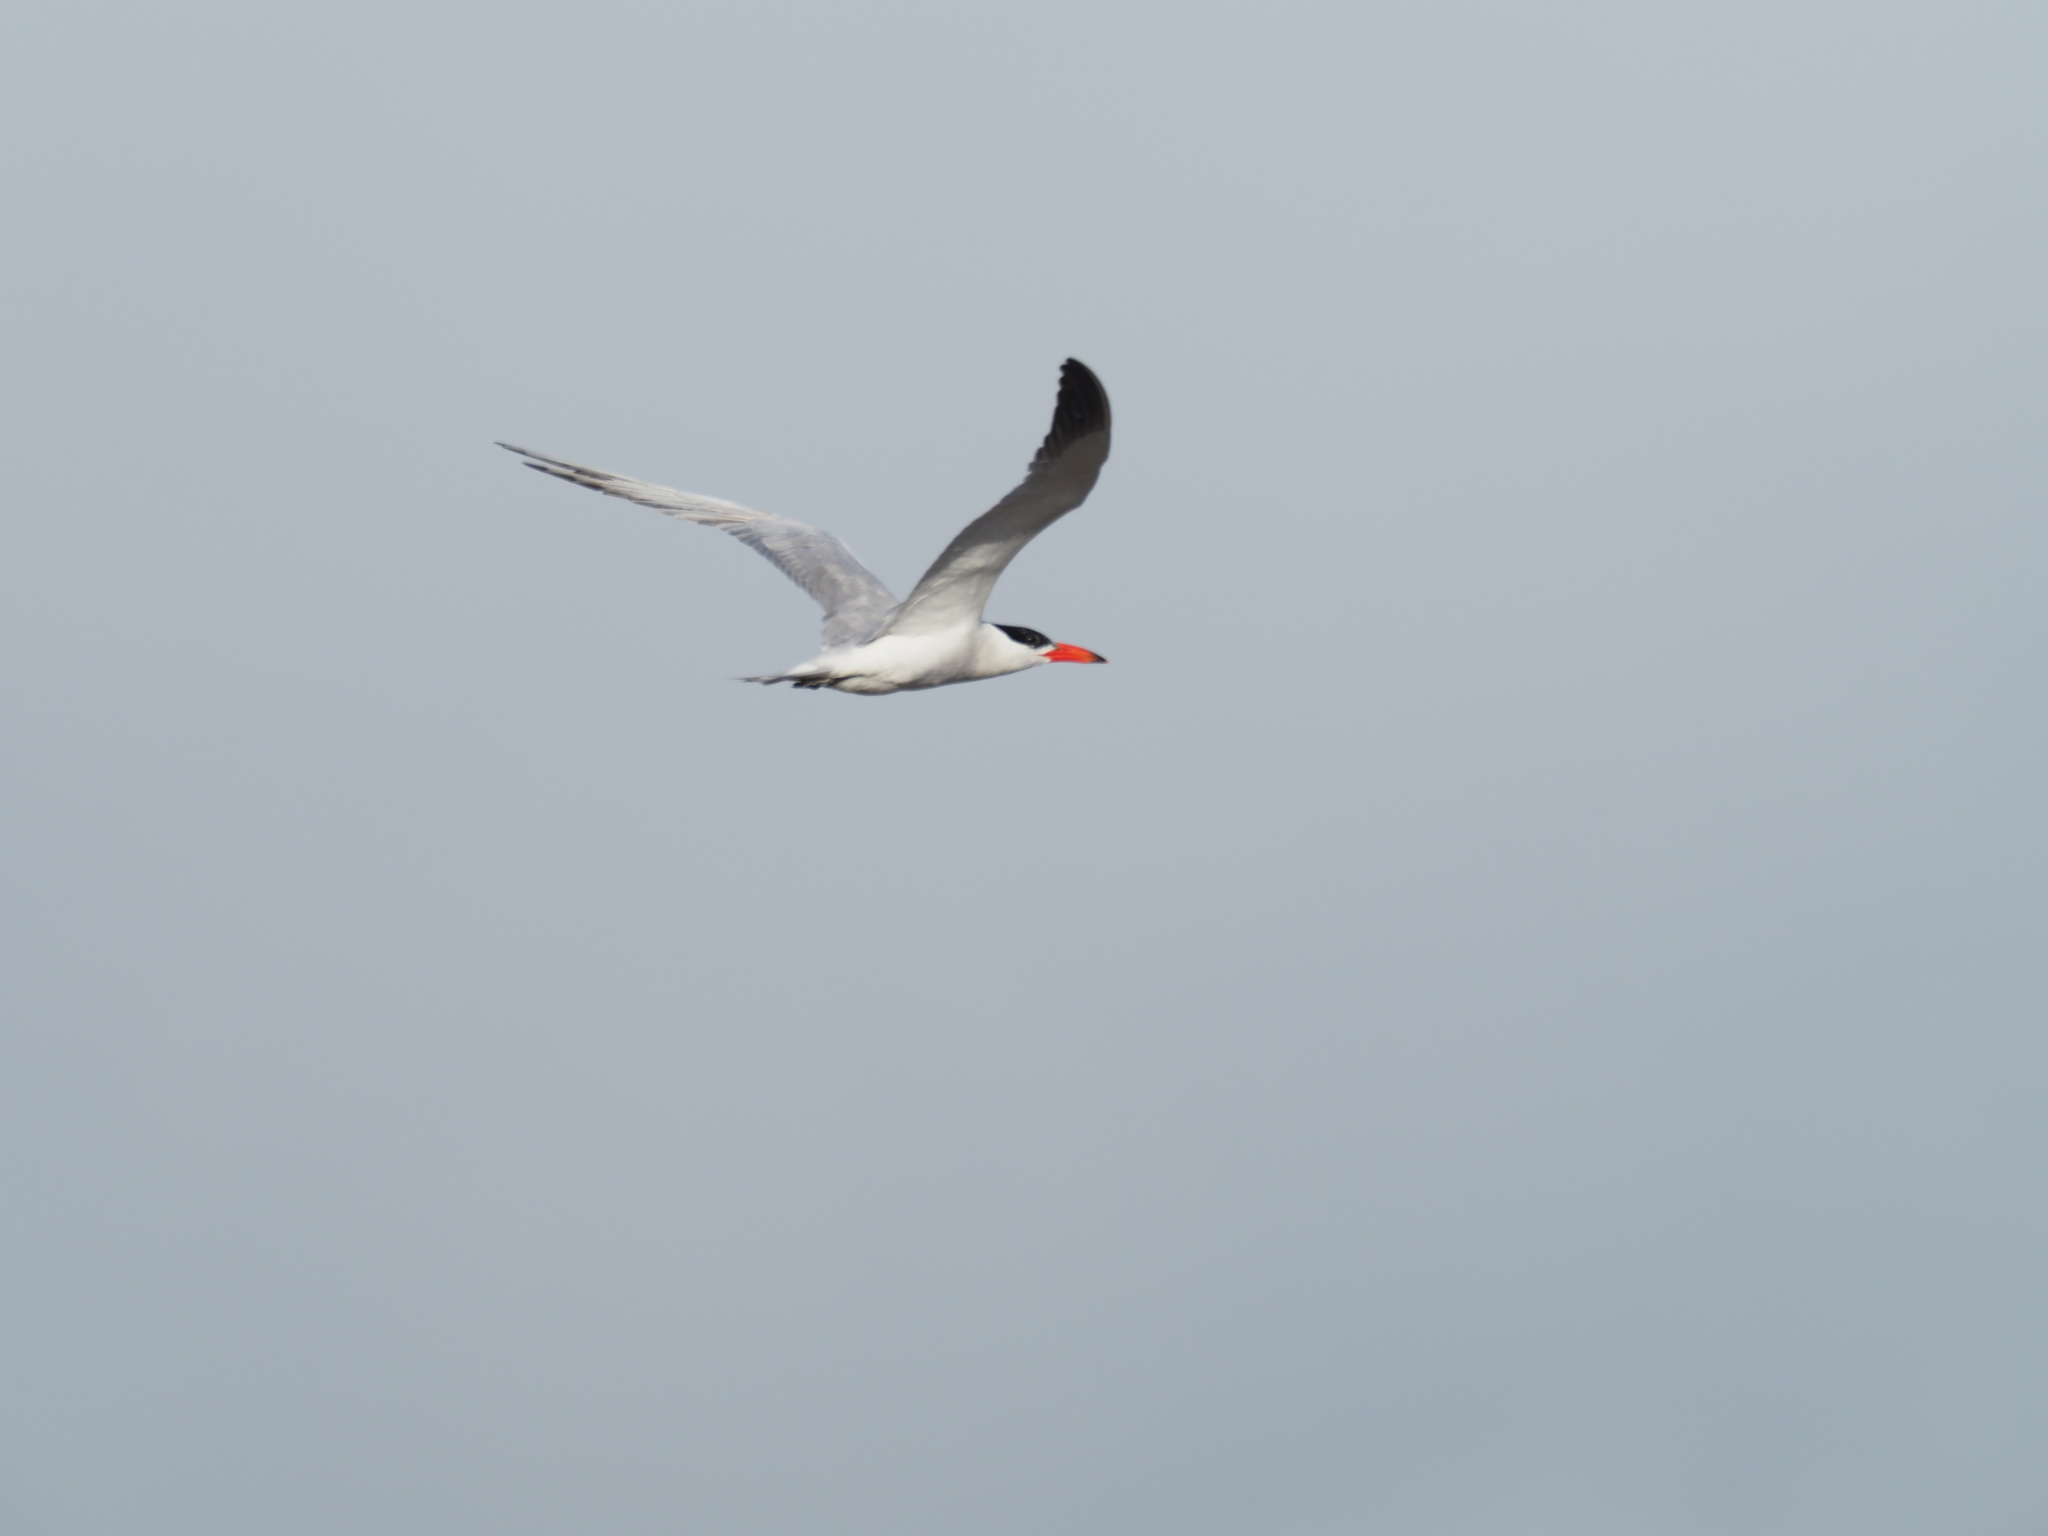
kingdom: Animalia
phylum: Chordata
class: Aves
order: Charadriiformes
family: Laridae
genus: Hydroprogne
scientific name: Hydroprogne caspia
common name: Caspian tern
